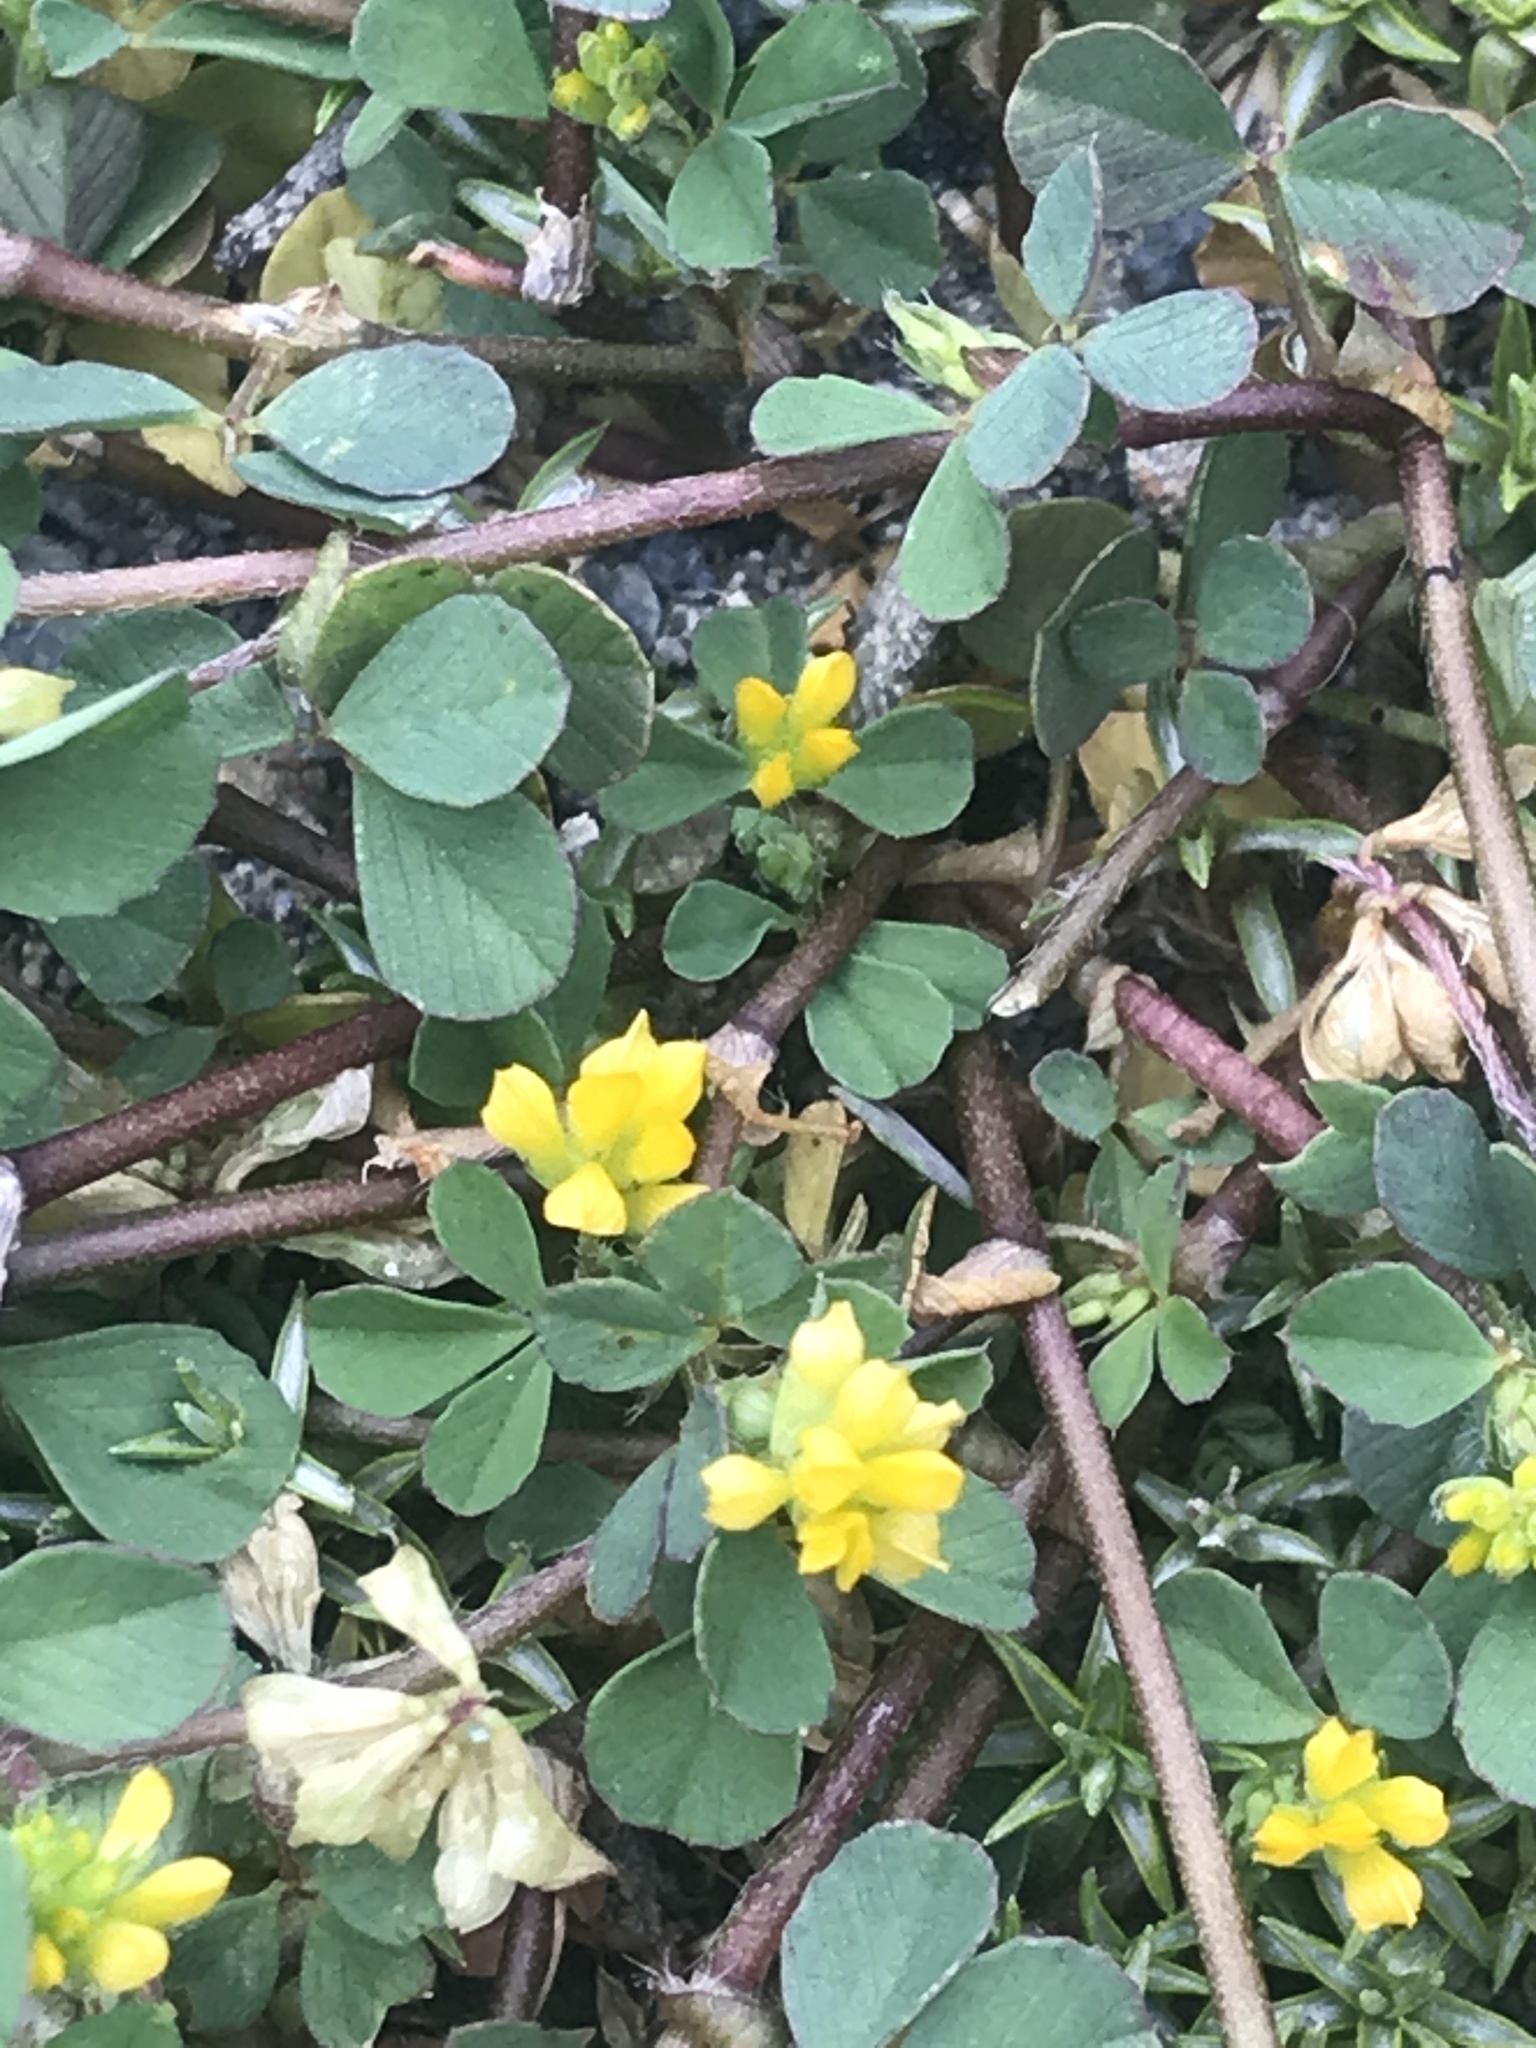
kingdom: Plantae
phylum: Tracheophyta
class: Magnoliopsida
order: Fabales
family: Fabaceae
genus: Trifolium
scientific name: Trifolium dubium
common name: Suckling clover
